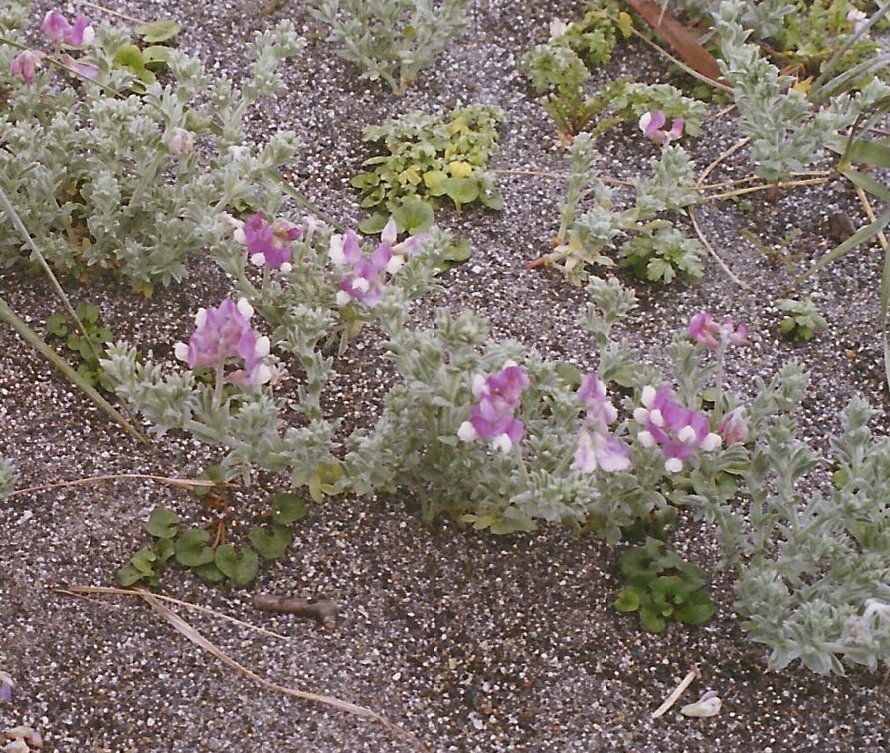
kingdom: Plantae
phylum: Tracheophyta
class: Magnoliopsida
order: Fabales
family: Fabaceae
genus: Lathyrus
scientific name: Lathyrus littoralis
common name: Dune sweet pea
